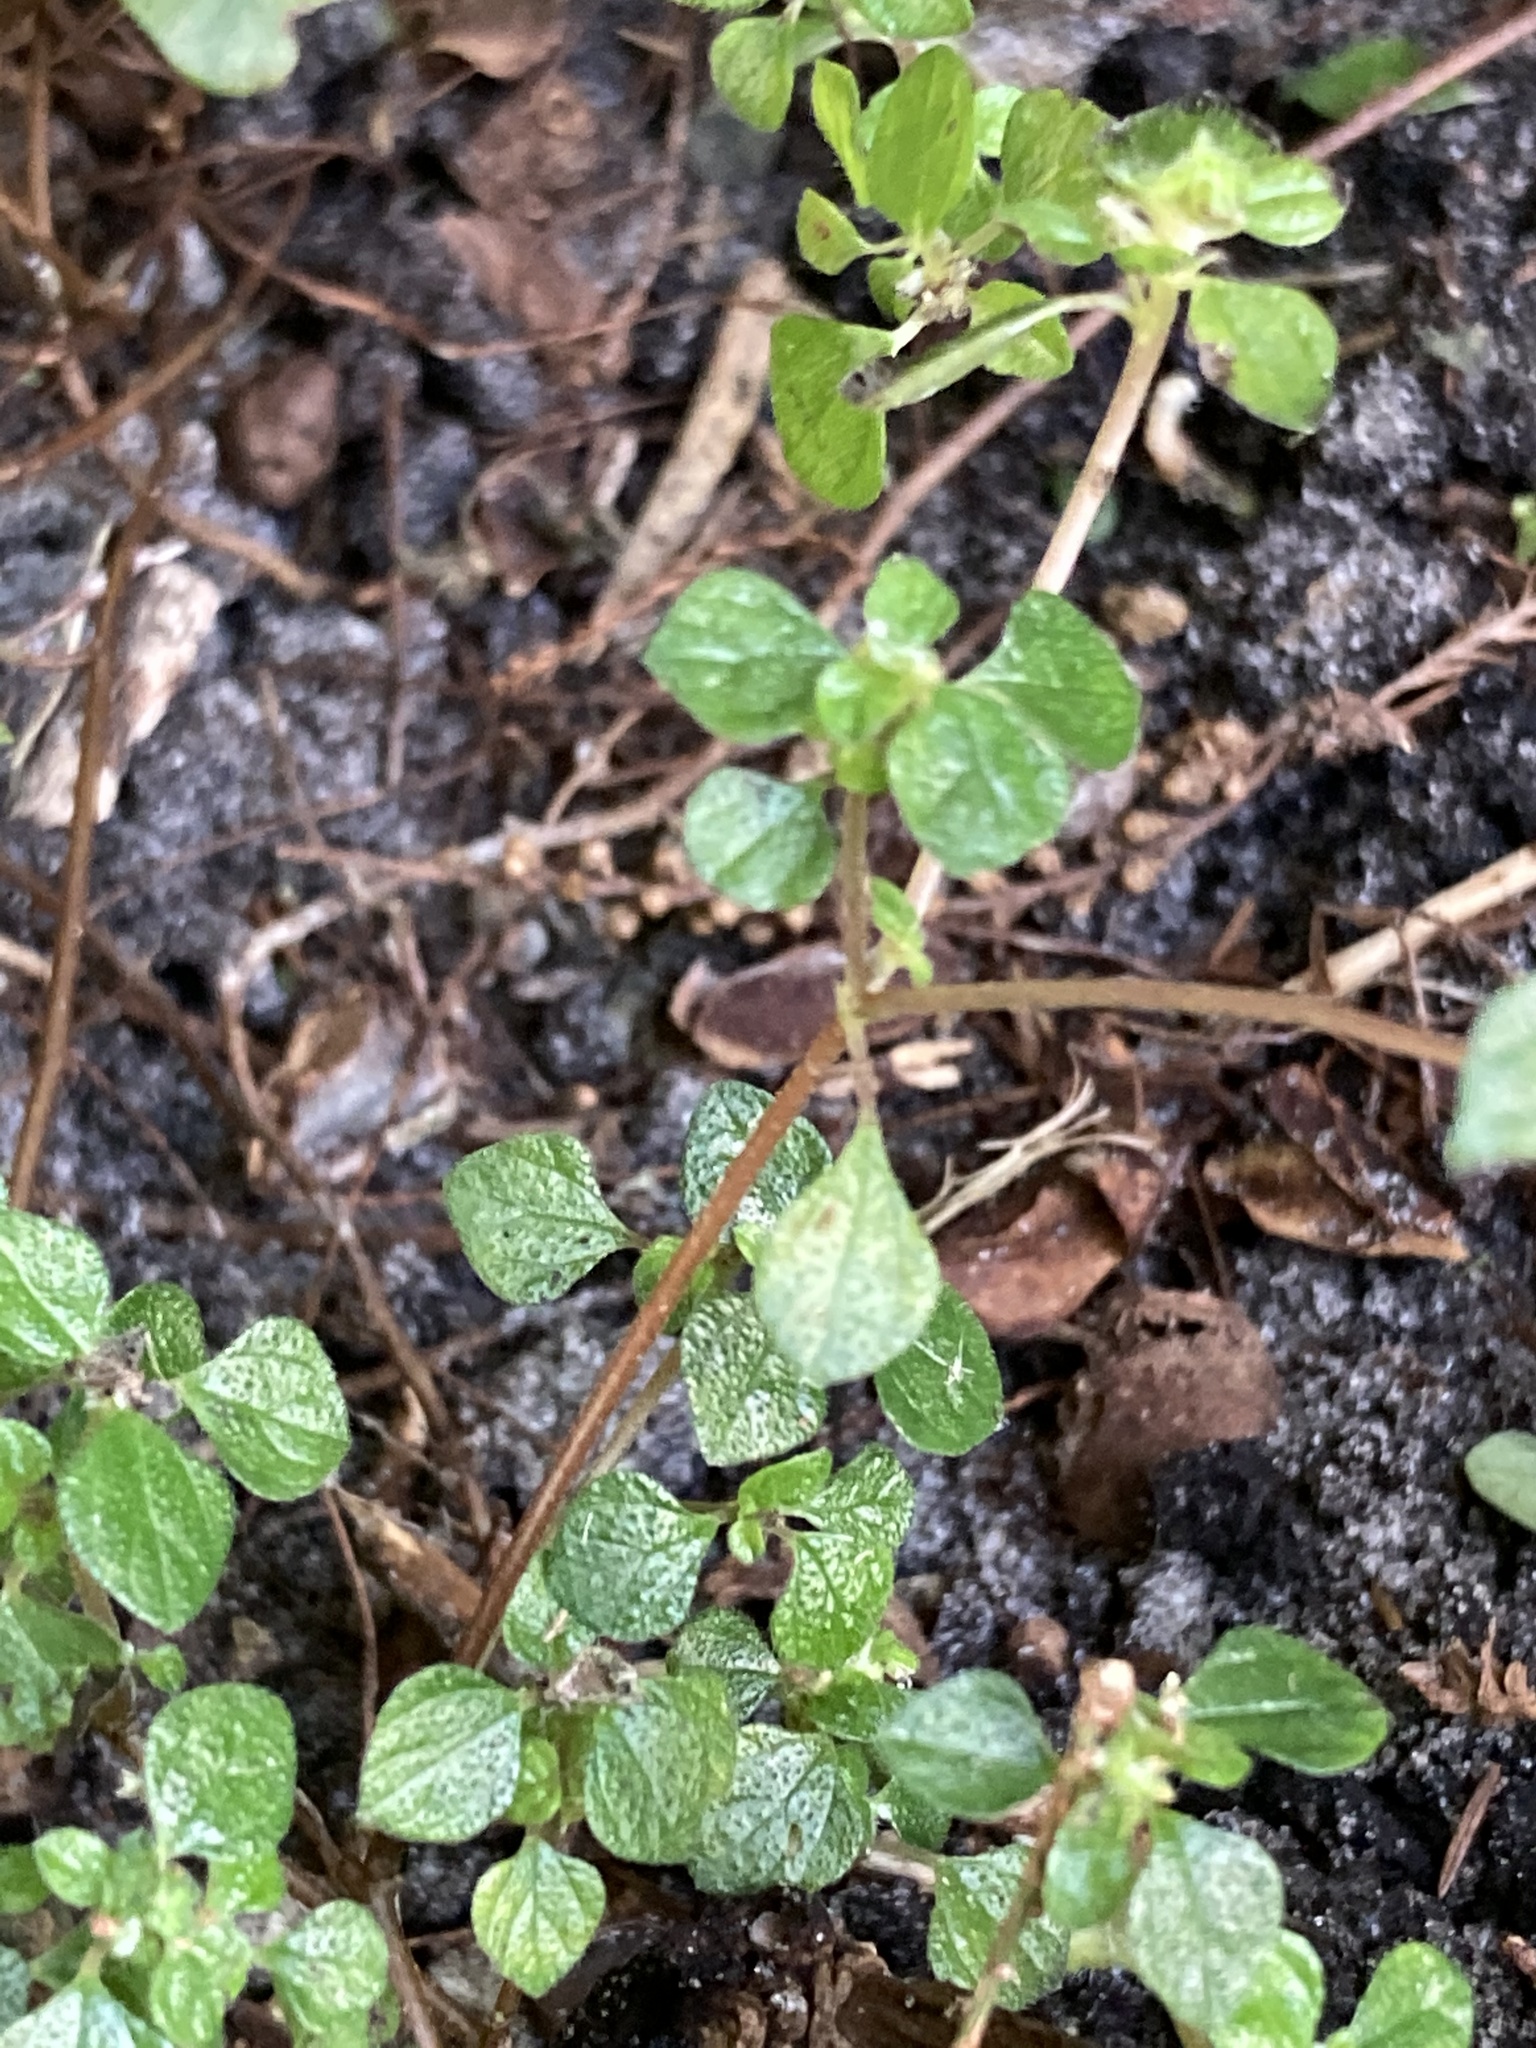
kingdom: Plantae
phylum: Tracheophyta
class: Magnoliopsida
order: Rosales
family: Urticaceae
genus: Rousselia
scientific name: Rousselia humilis
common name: Shineseed
